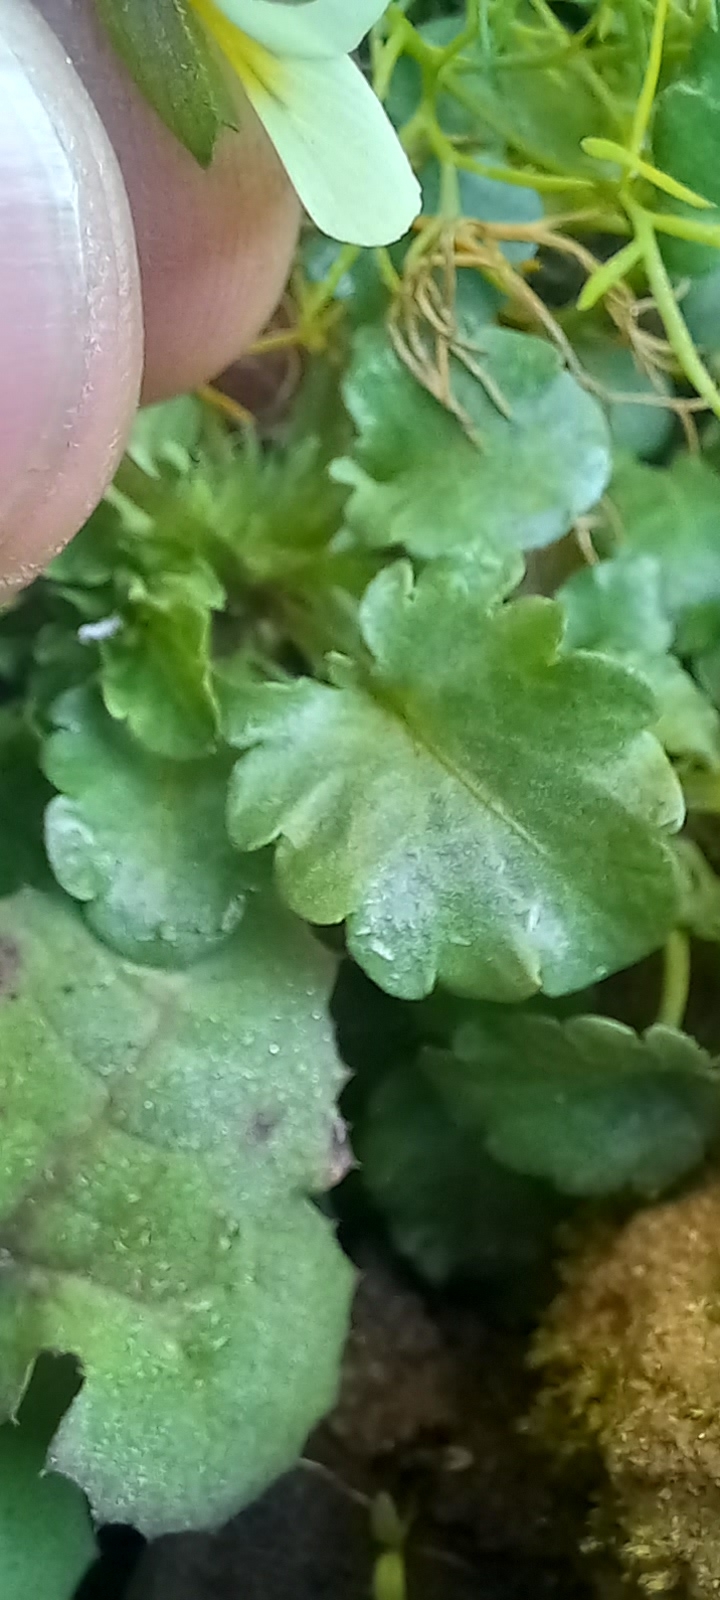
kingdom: Plantae
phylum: Tracheophyta
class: Magnoliopsida
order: Malpighiales
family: Violaceae
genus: Viola
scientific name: Viola arvensis
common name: Field pansy
